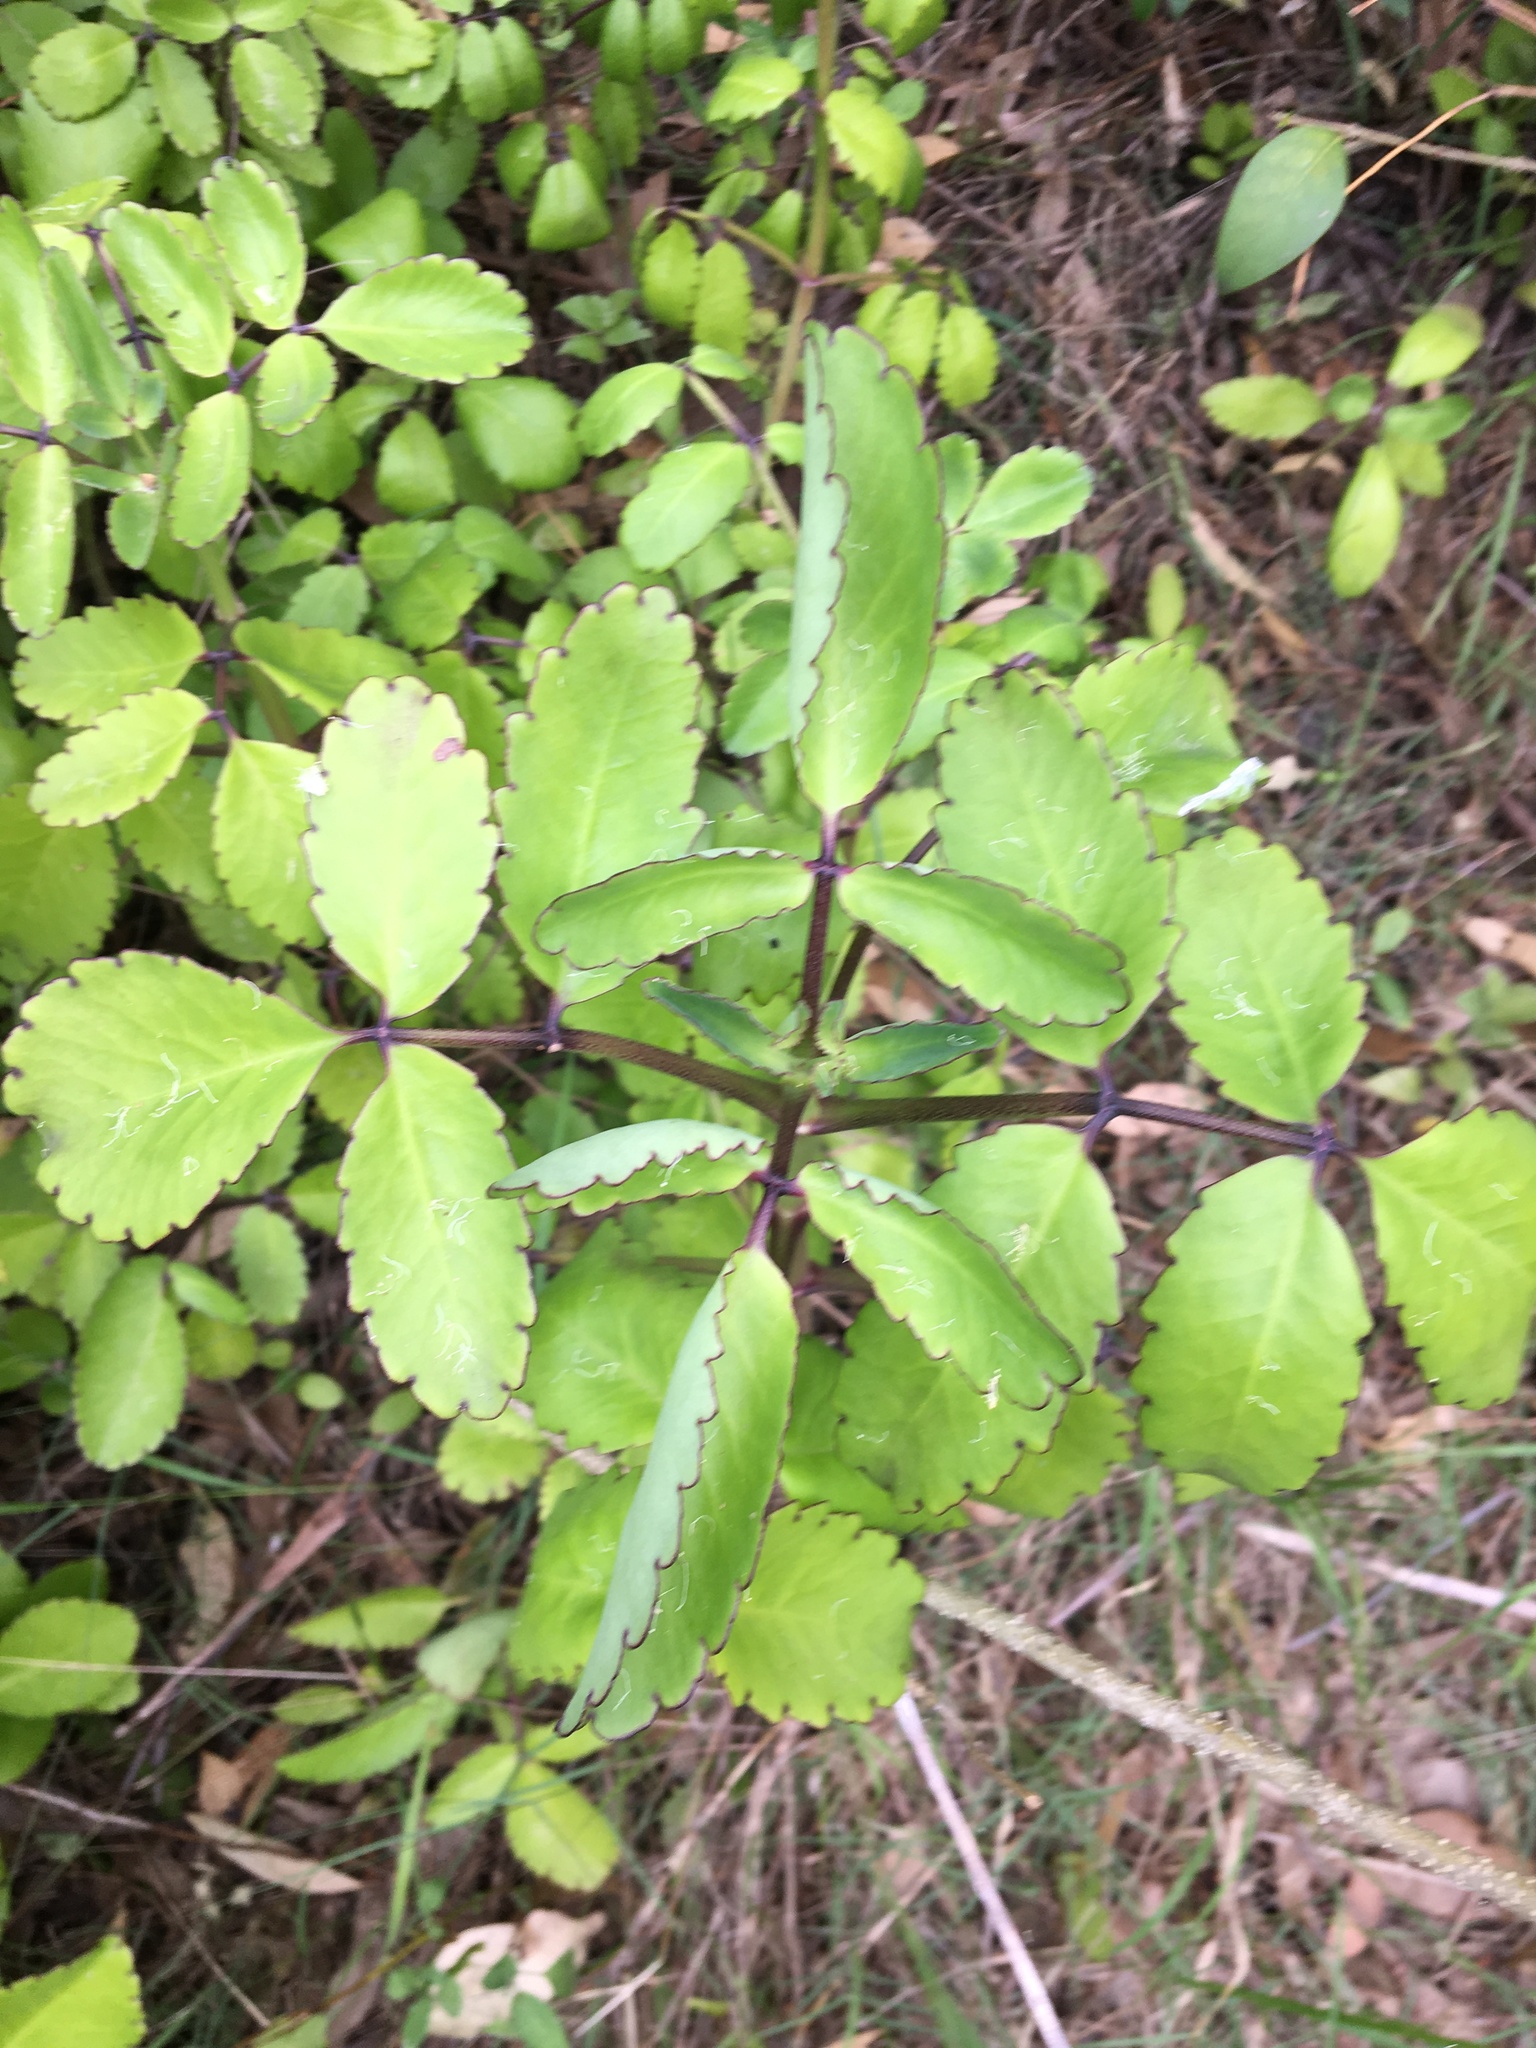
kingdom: Plantae
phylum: Tracheophyta
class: Magnoliopsida
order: Saxifragales
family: Crassulaceae
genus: Kalanchoe
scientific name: Kalanchoe pinnata
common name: Cathedral bells
